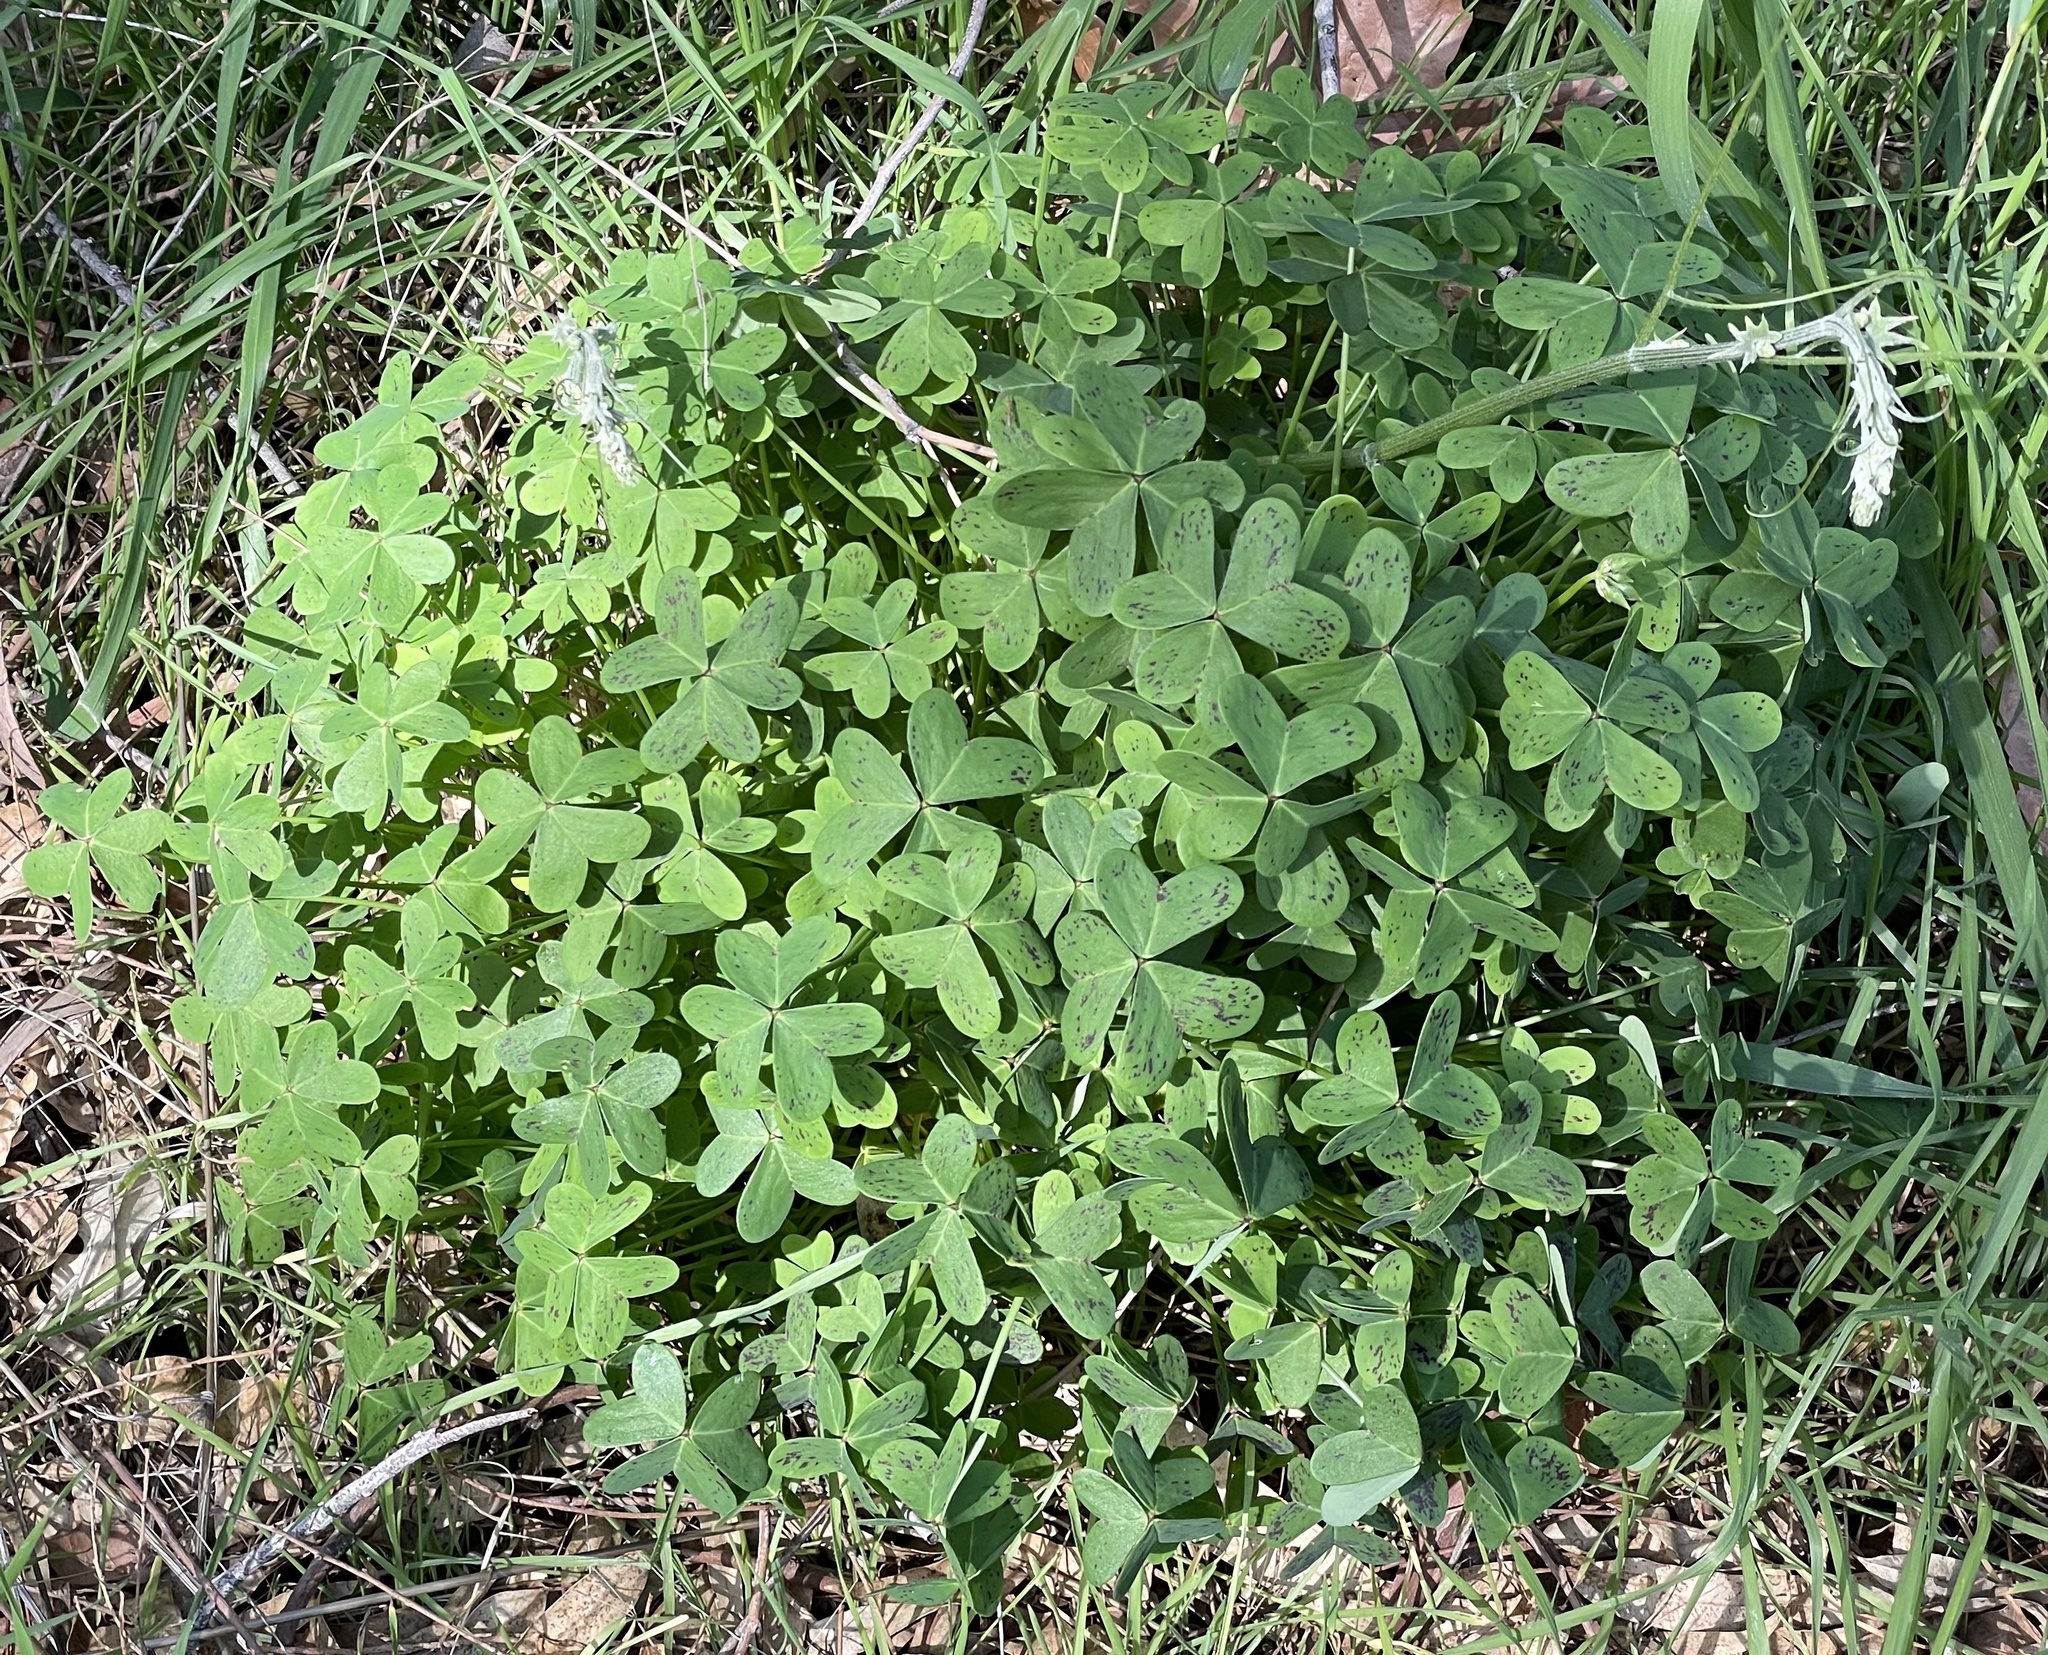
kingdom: Plantae
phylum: Tracheophyta
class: Magnoliopsida
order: Oxalidales
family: Oxalidaceae
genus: Oxalis
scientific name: Oxalis pes-caprae
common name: Bermuda-buttercup
